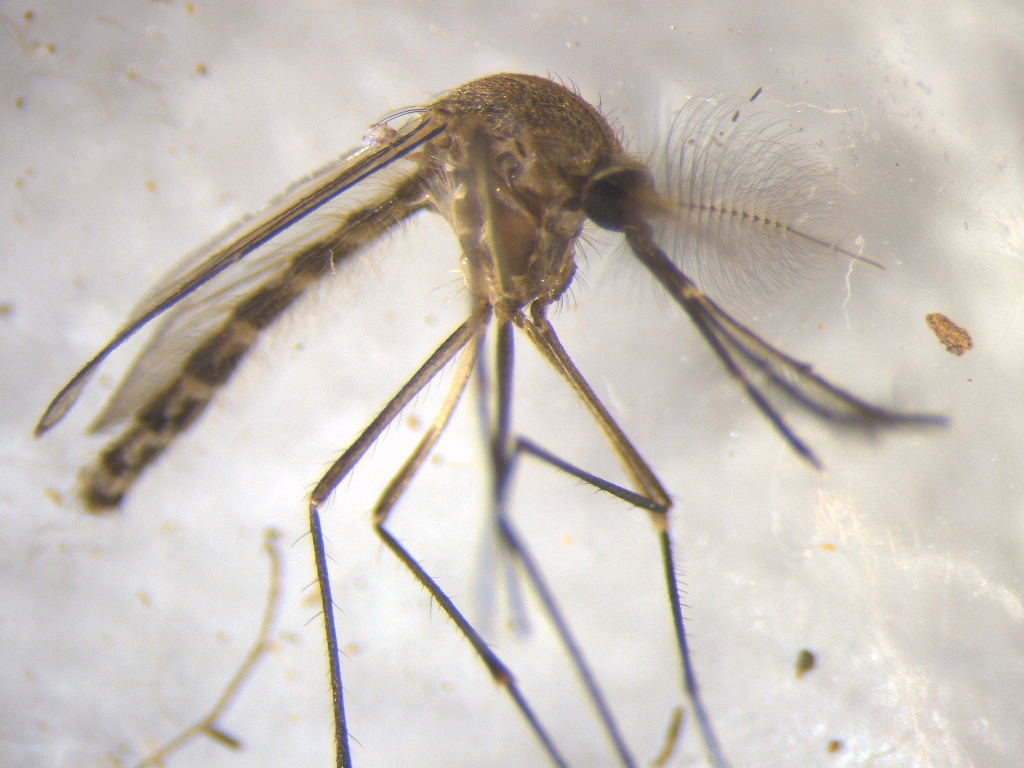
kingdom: Animalia
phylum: Arthropoda
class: Insecta
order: Diptera
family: Culicidae
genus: Culex
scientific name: Culex pervigilans
